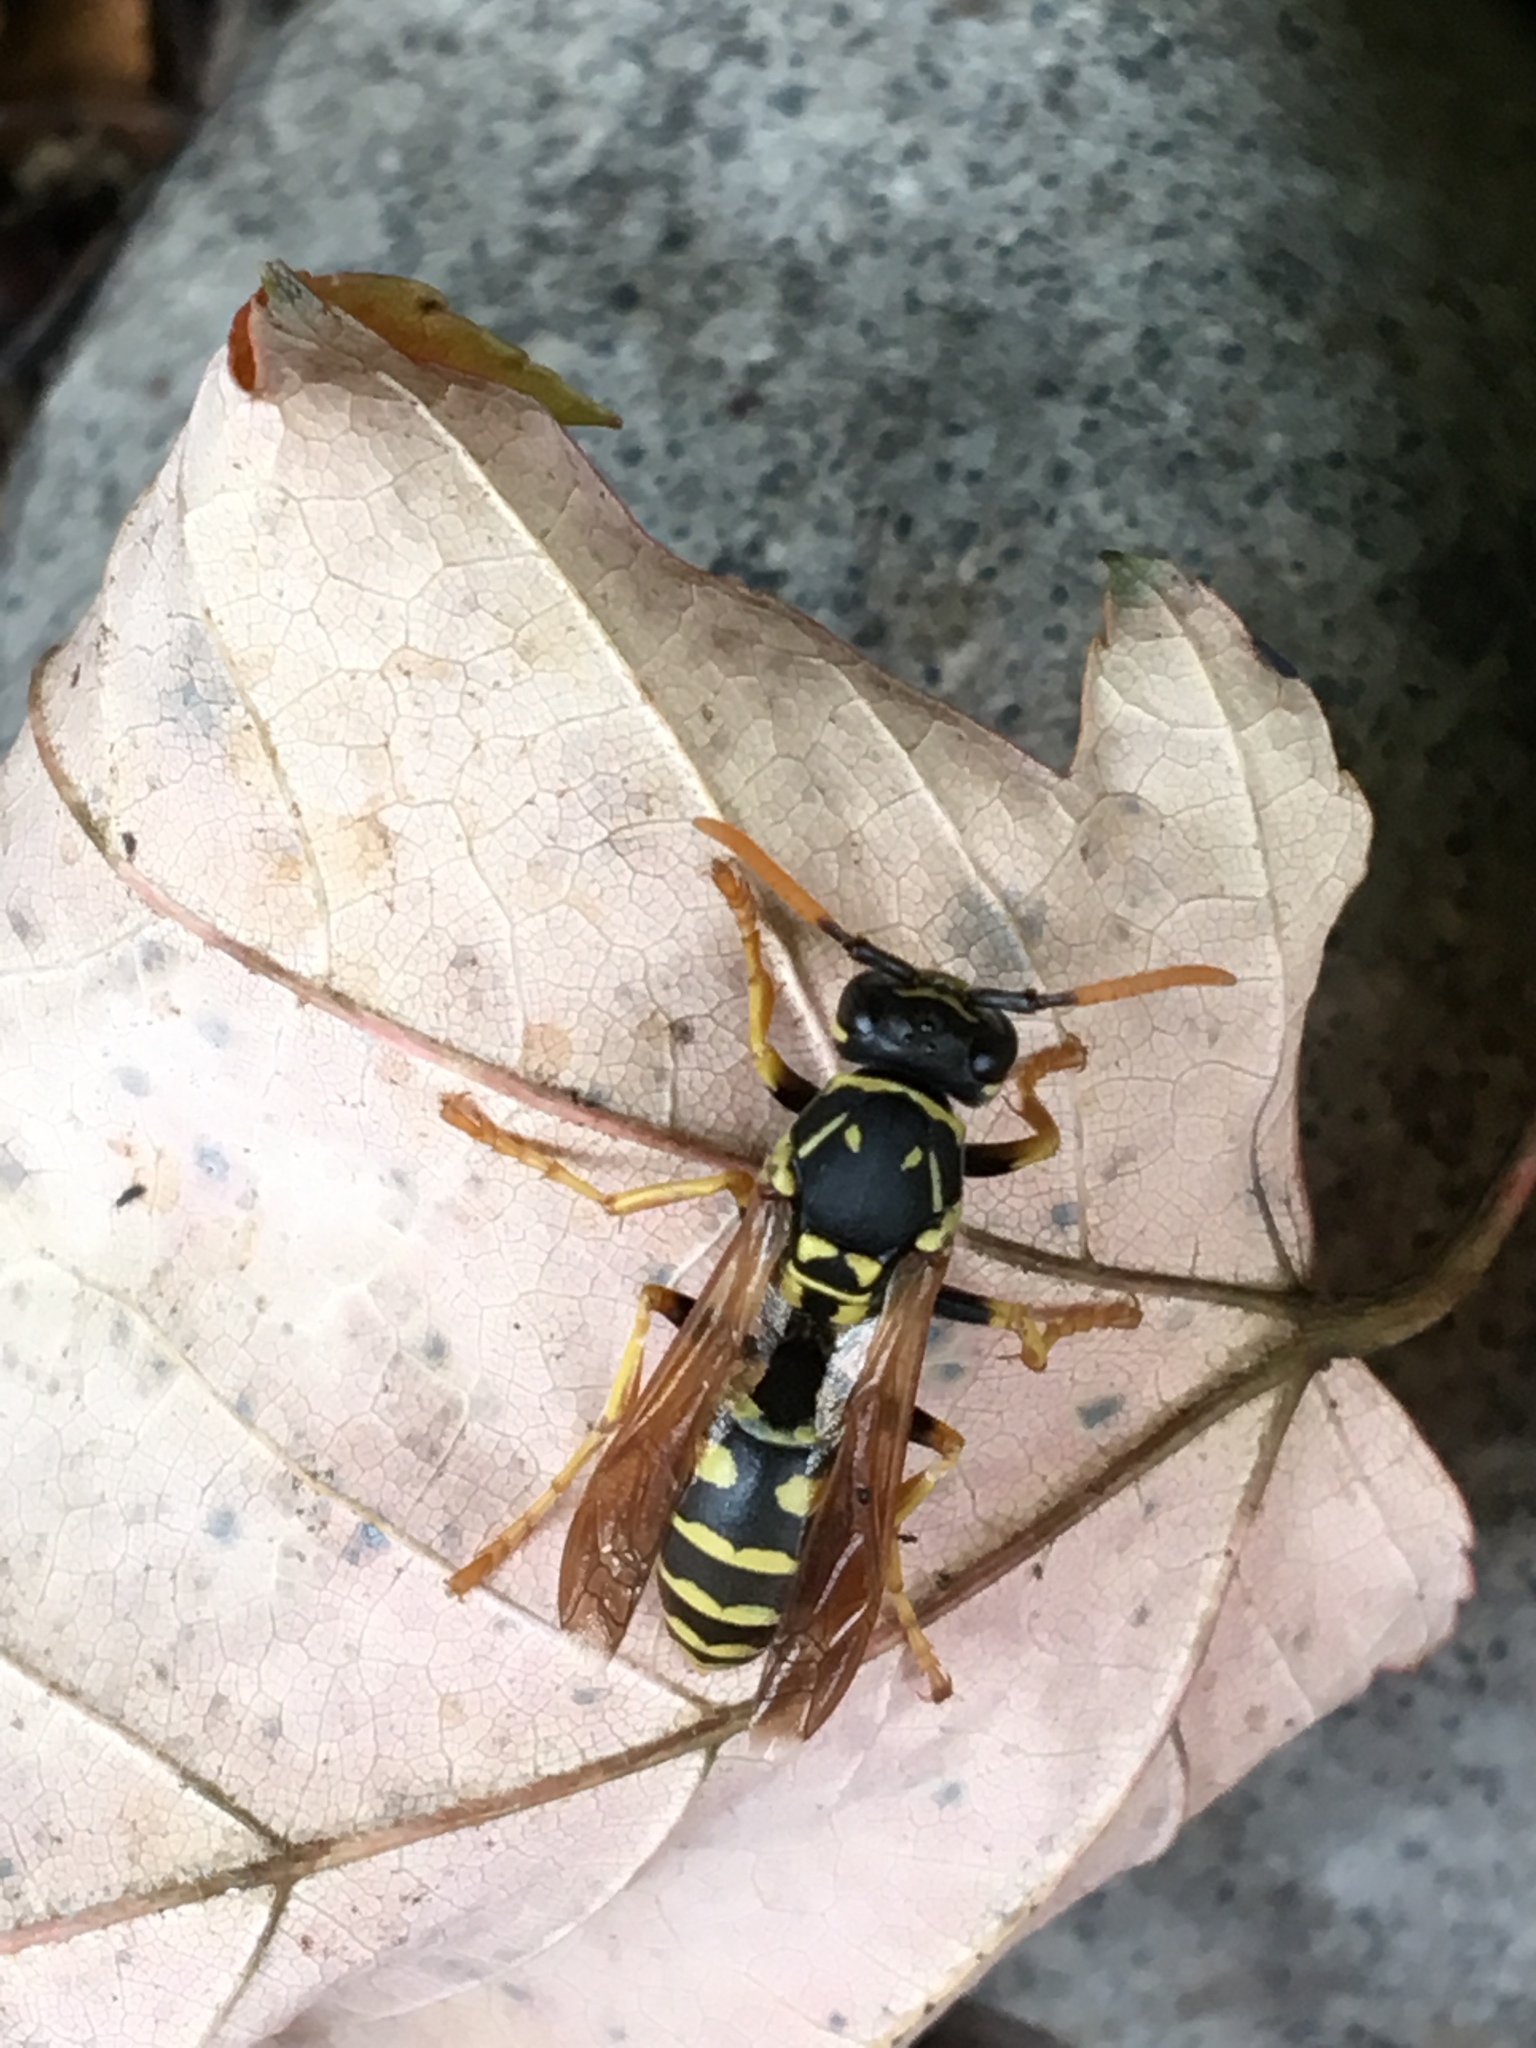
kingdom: Animalia
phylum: Arthropoda
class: Insecta
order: Hymenoptera
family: Eumenidae
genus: Polistes
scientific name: Polistes dominula
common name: Paper wasp
